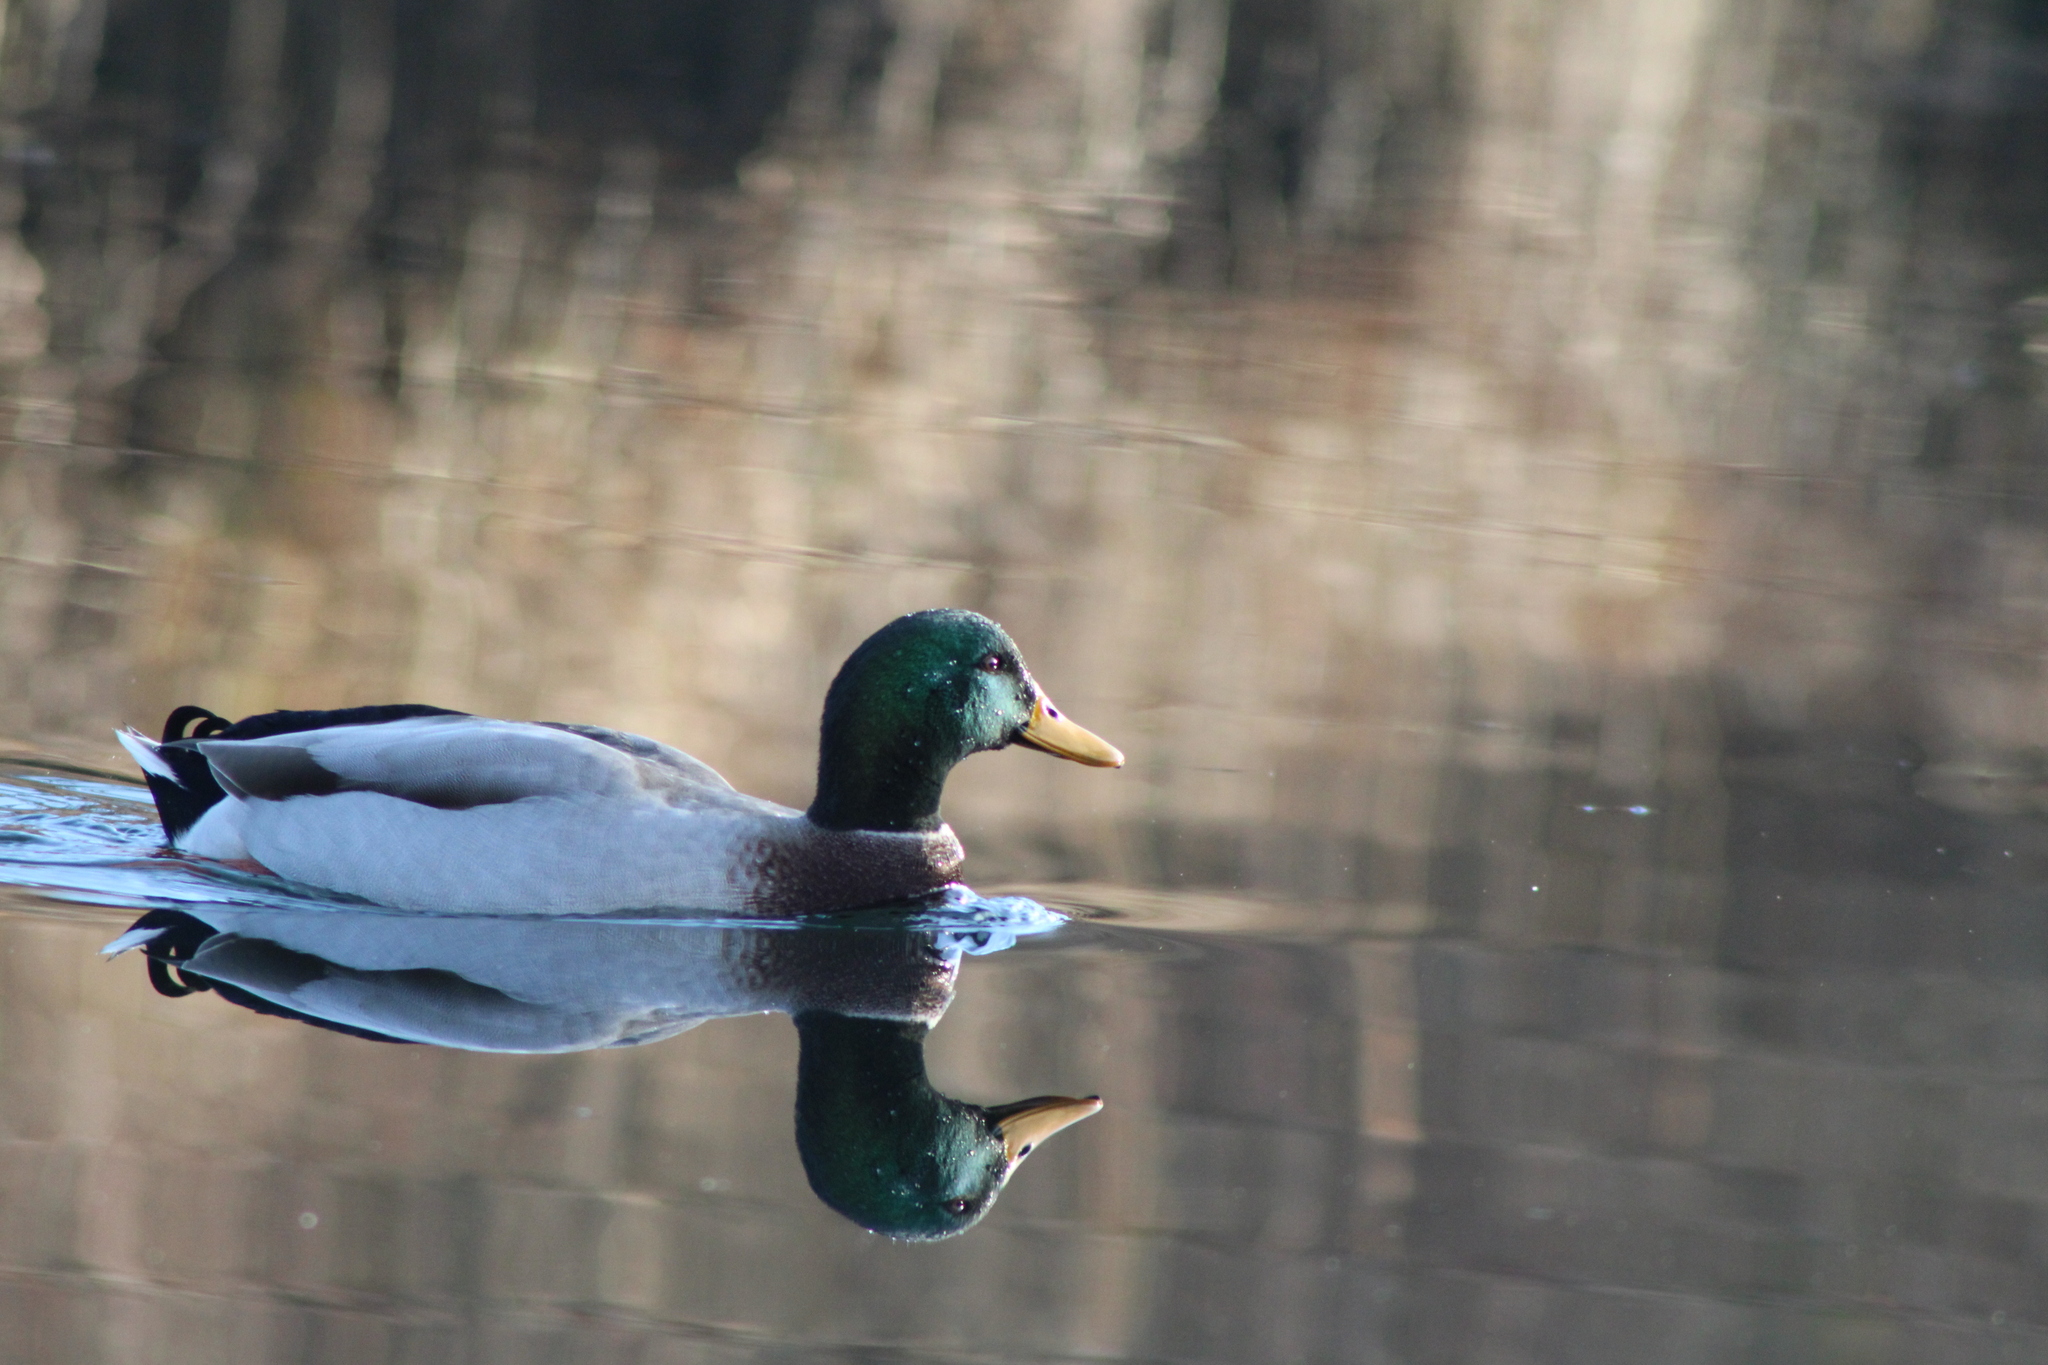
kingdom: Animalia
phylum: Chordata
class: Aves
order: Anseriformes
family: Anatidae
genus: Anas
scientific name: Anas platyrhynchos
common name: Mallard
